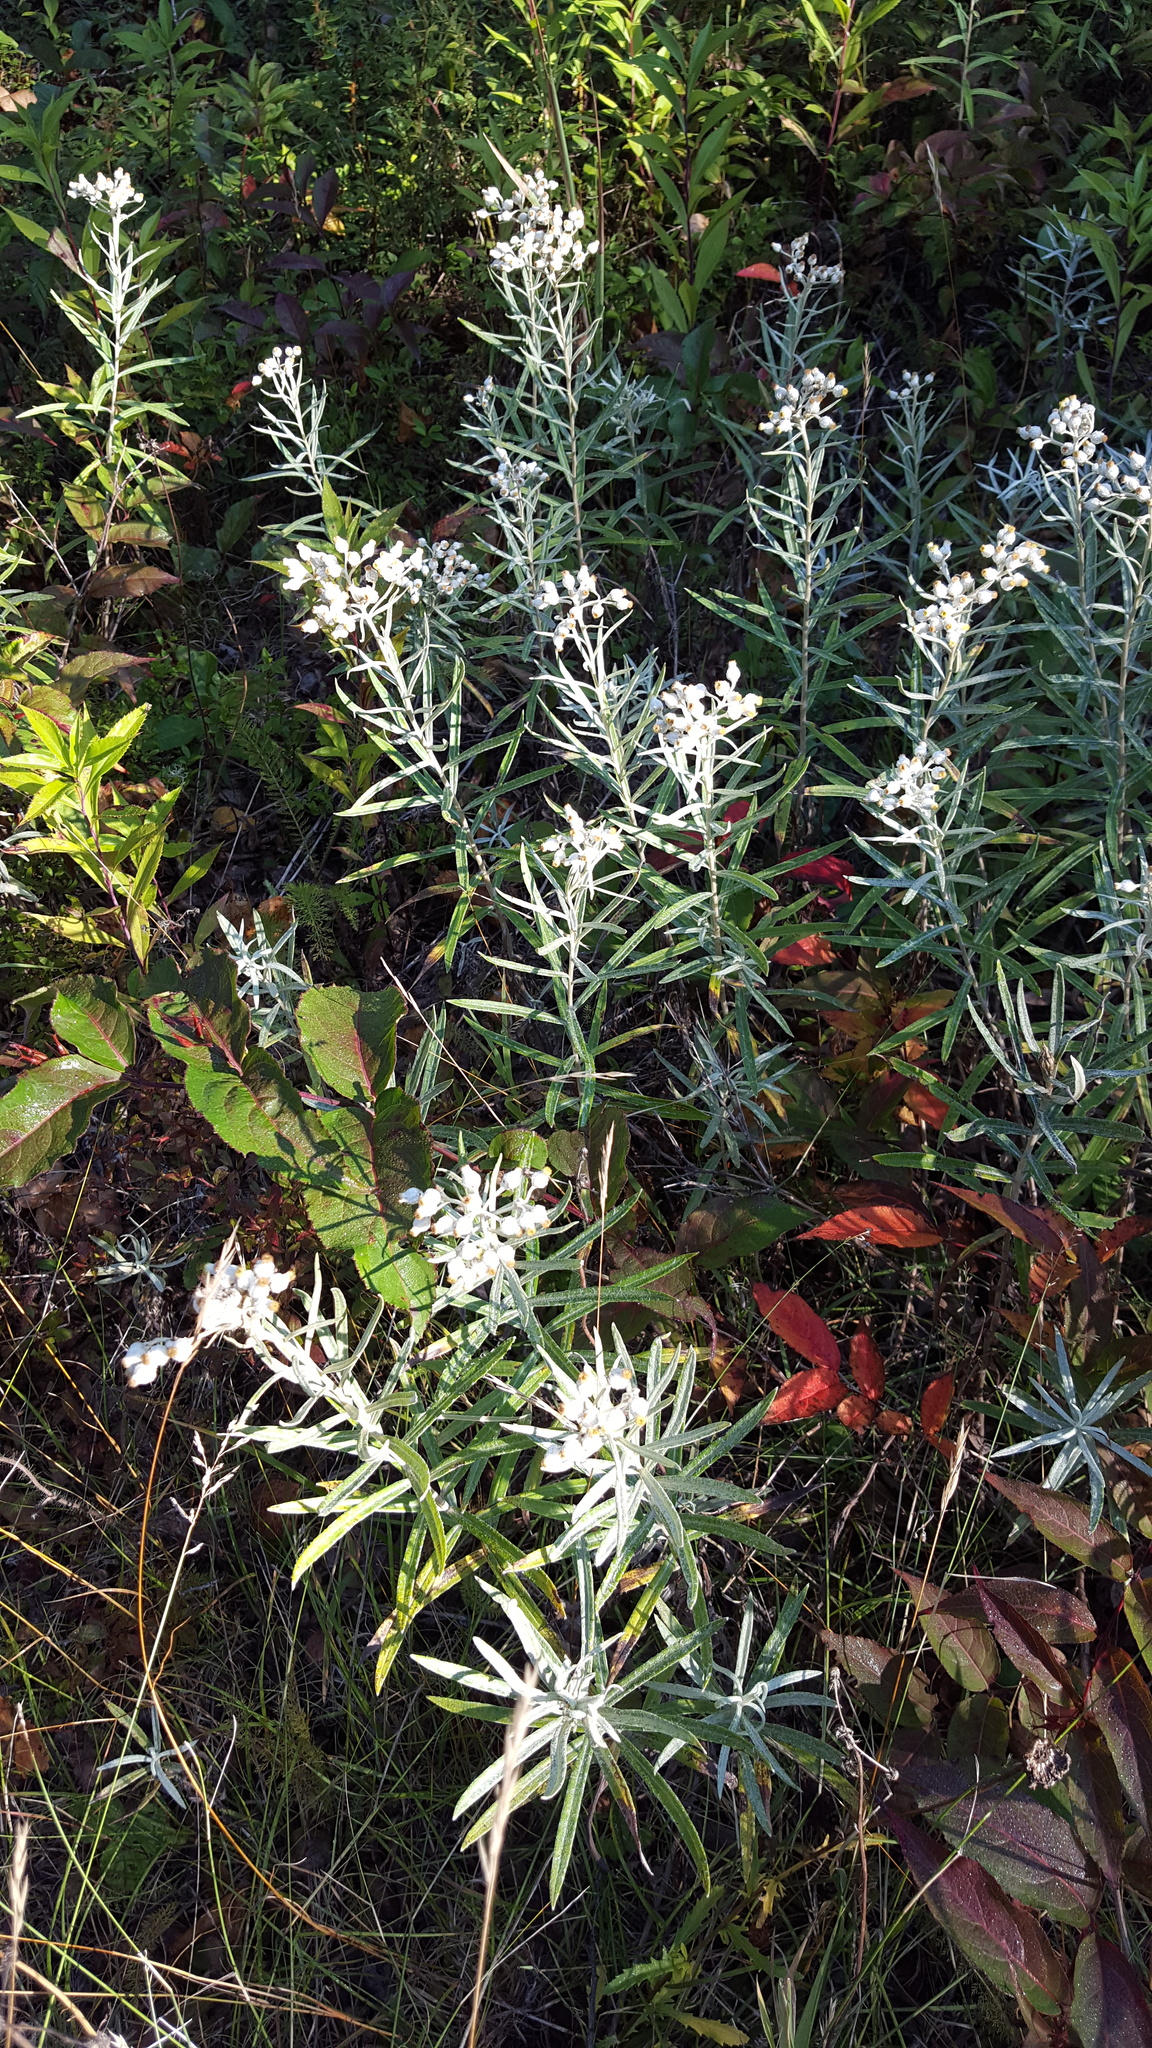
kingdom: Plantae
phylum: Tracheophyta
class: Magnoliopsida
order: Asterales
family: Asteraceae
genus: Anaphalis
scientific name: Anaphalis margaritacea
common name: Pearly everlasting
